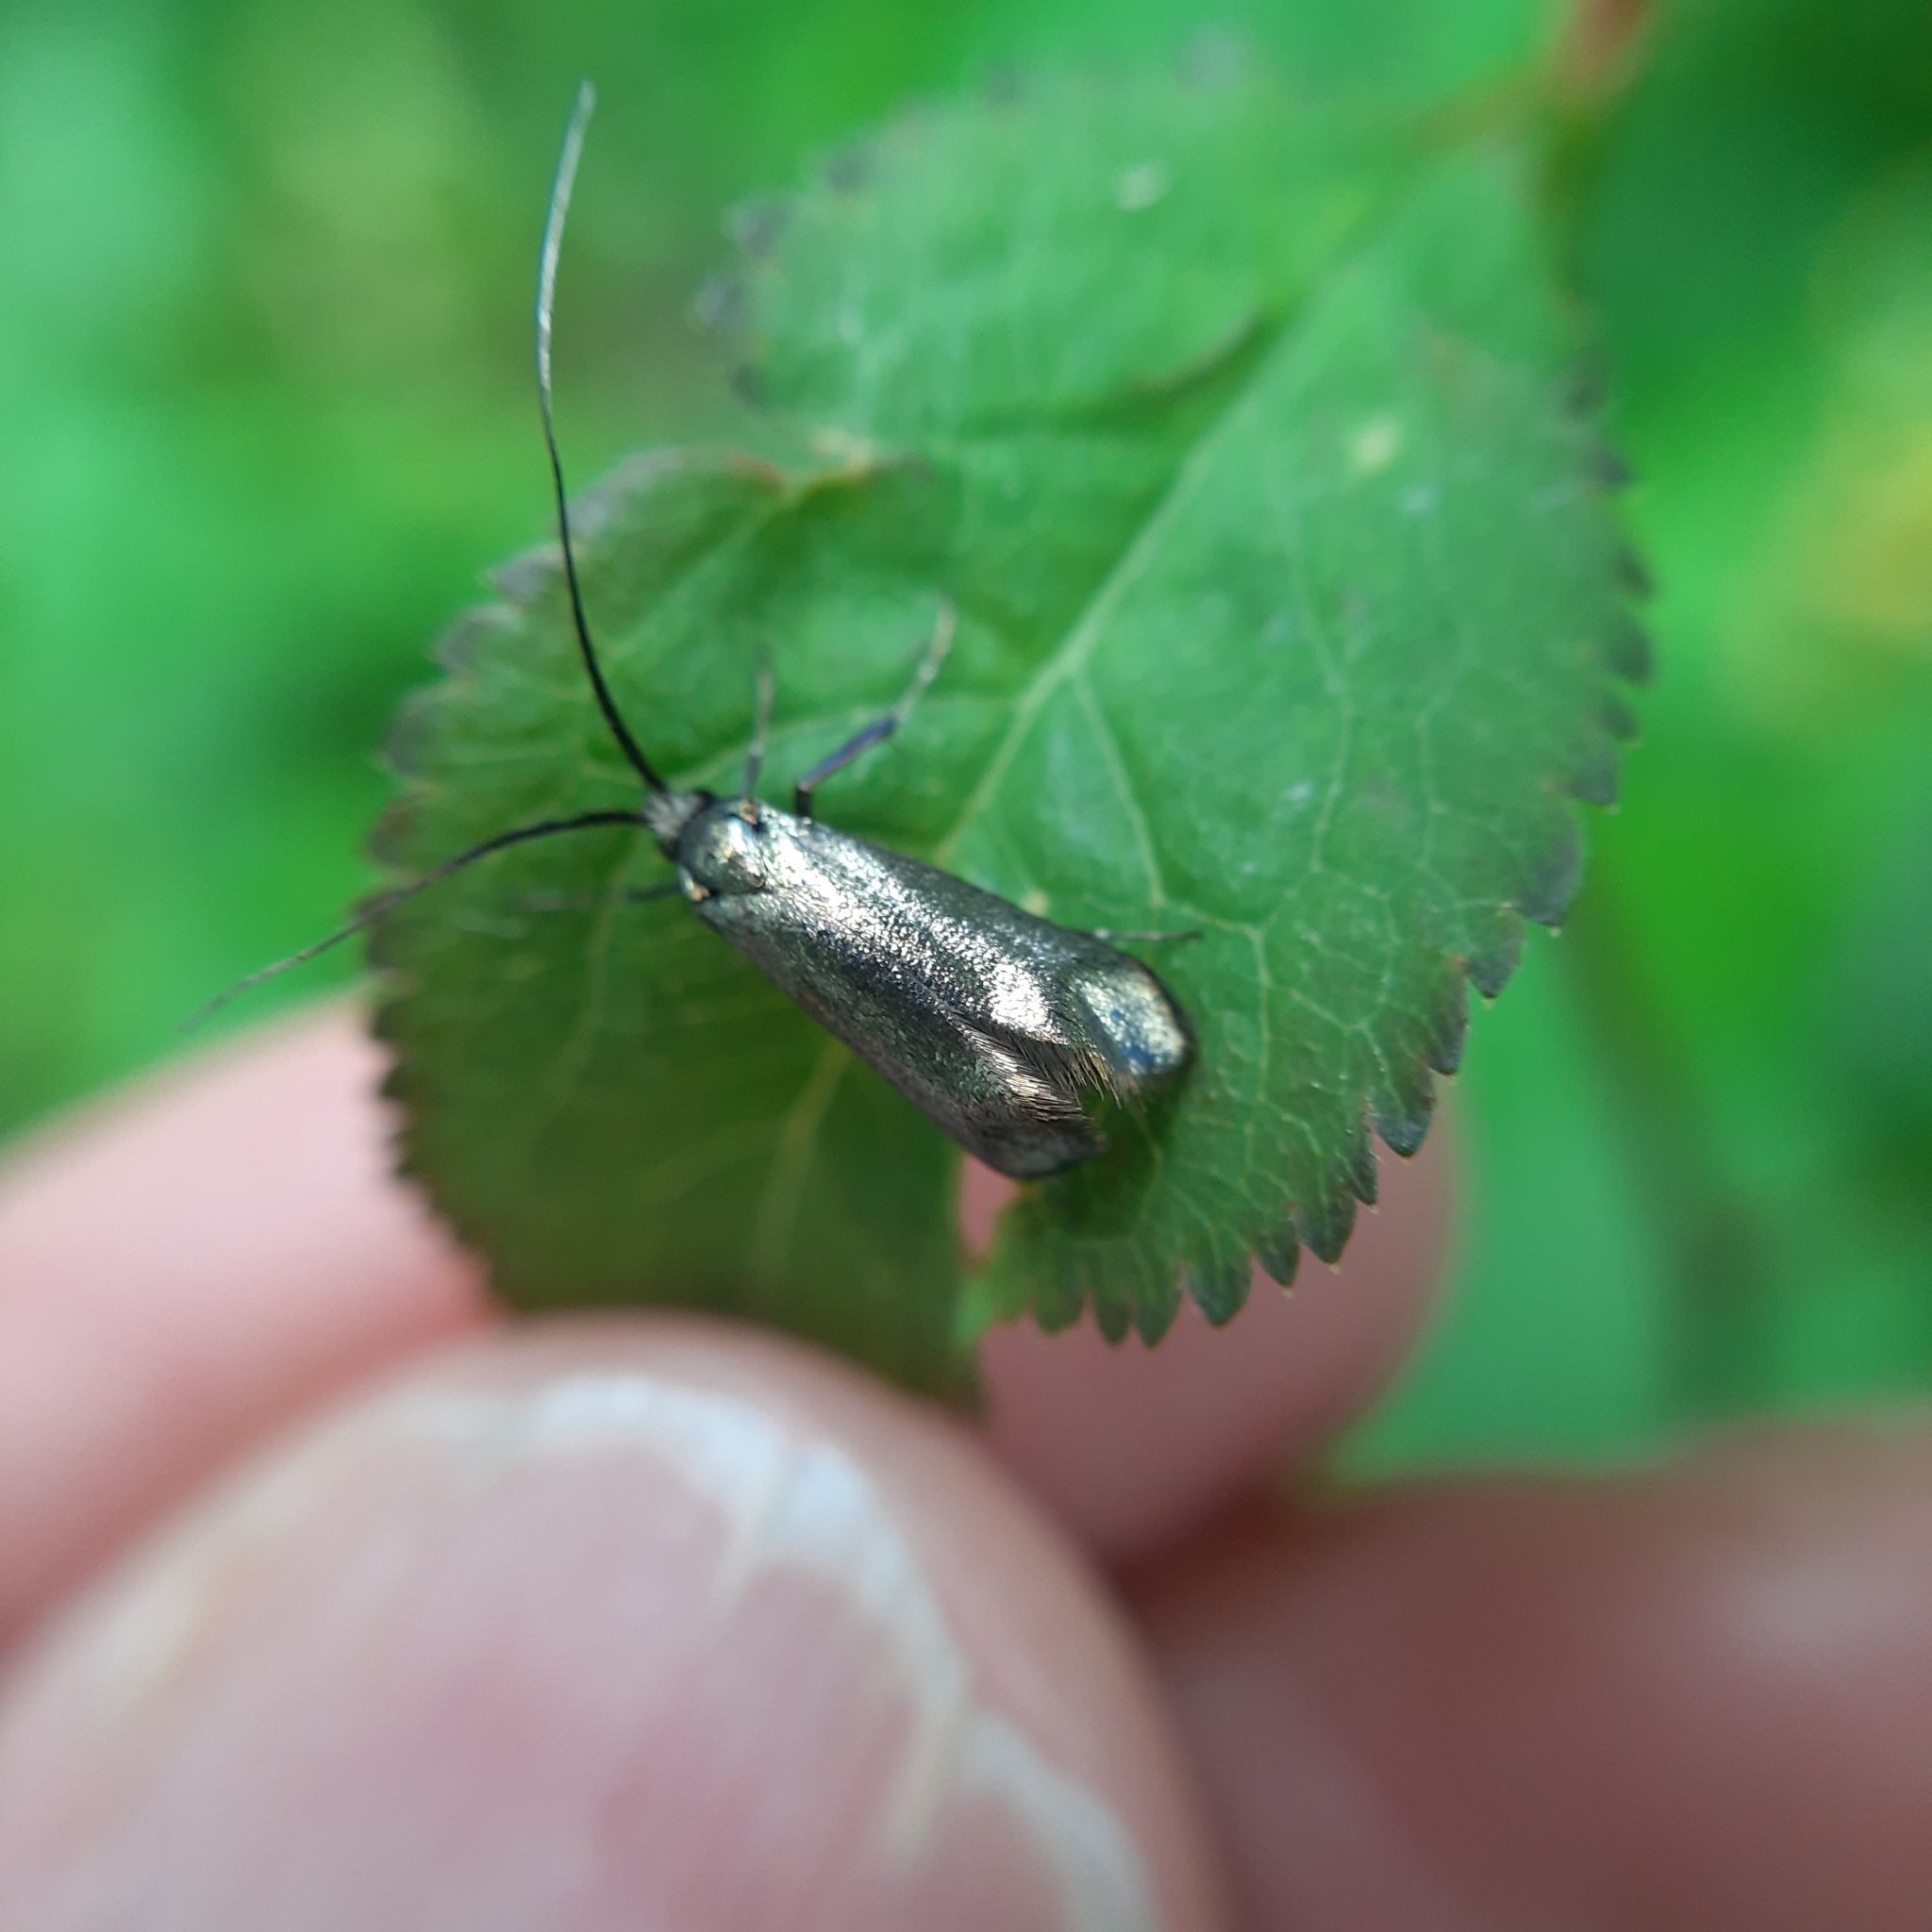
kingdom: Animalia
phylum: Arthropoda
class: Insecta
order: Lepidoptera
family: Adelidae
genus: Adela
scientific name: Adela viridella
